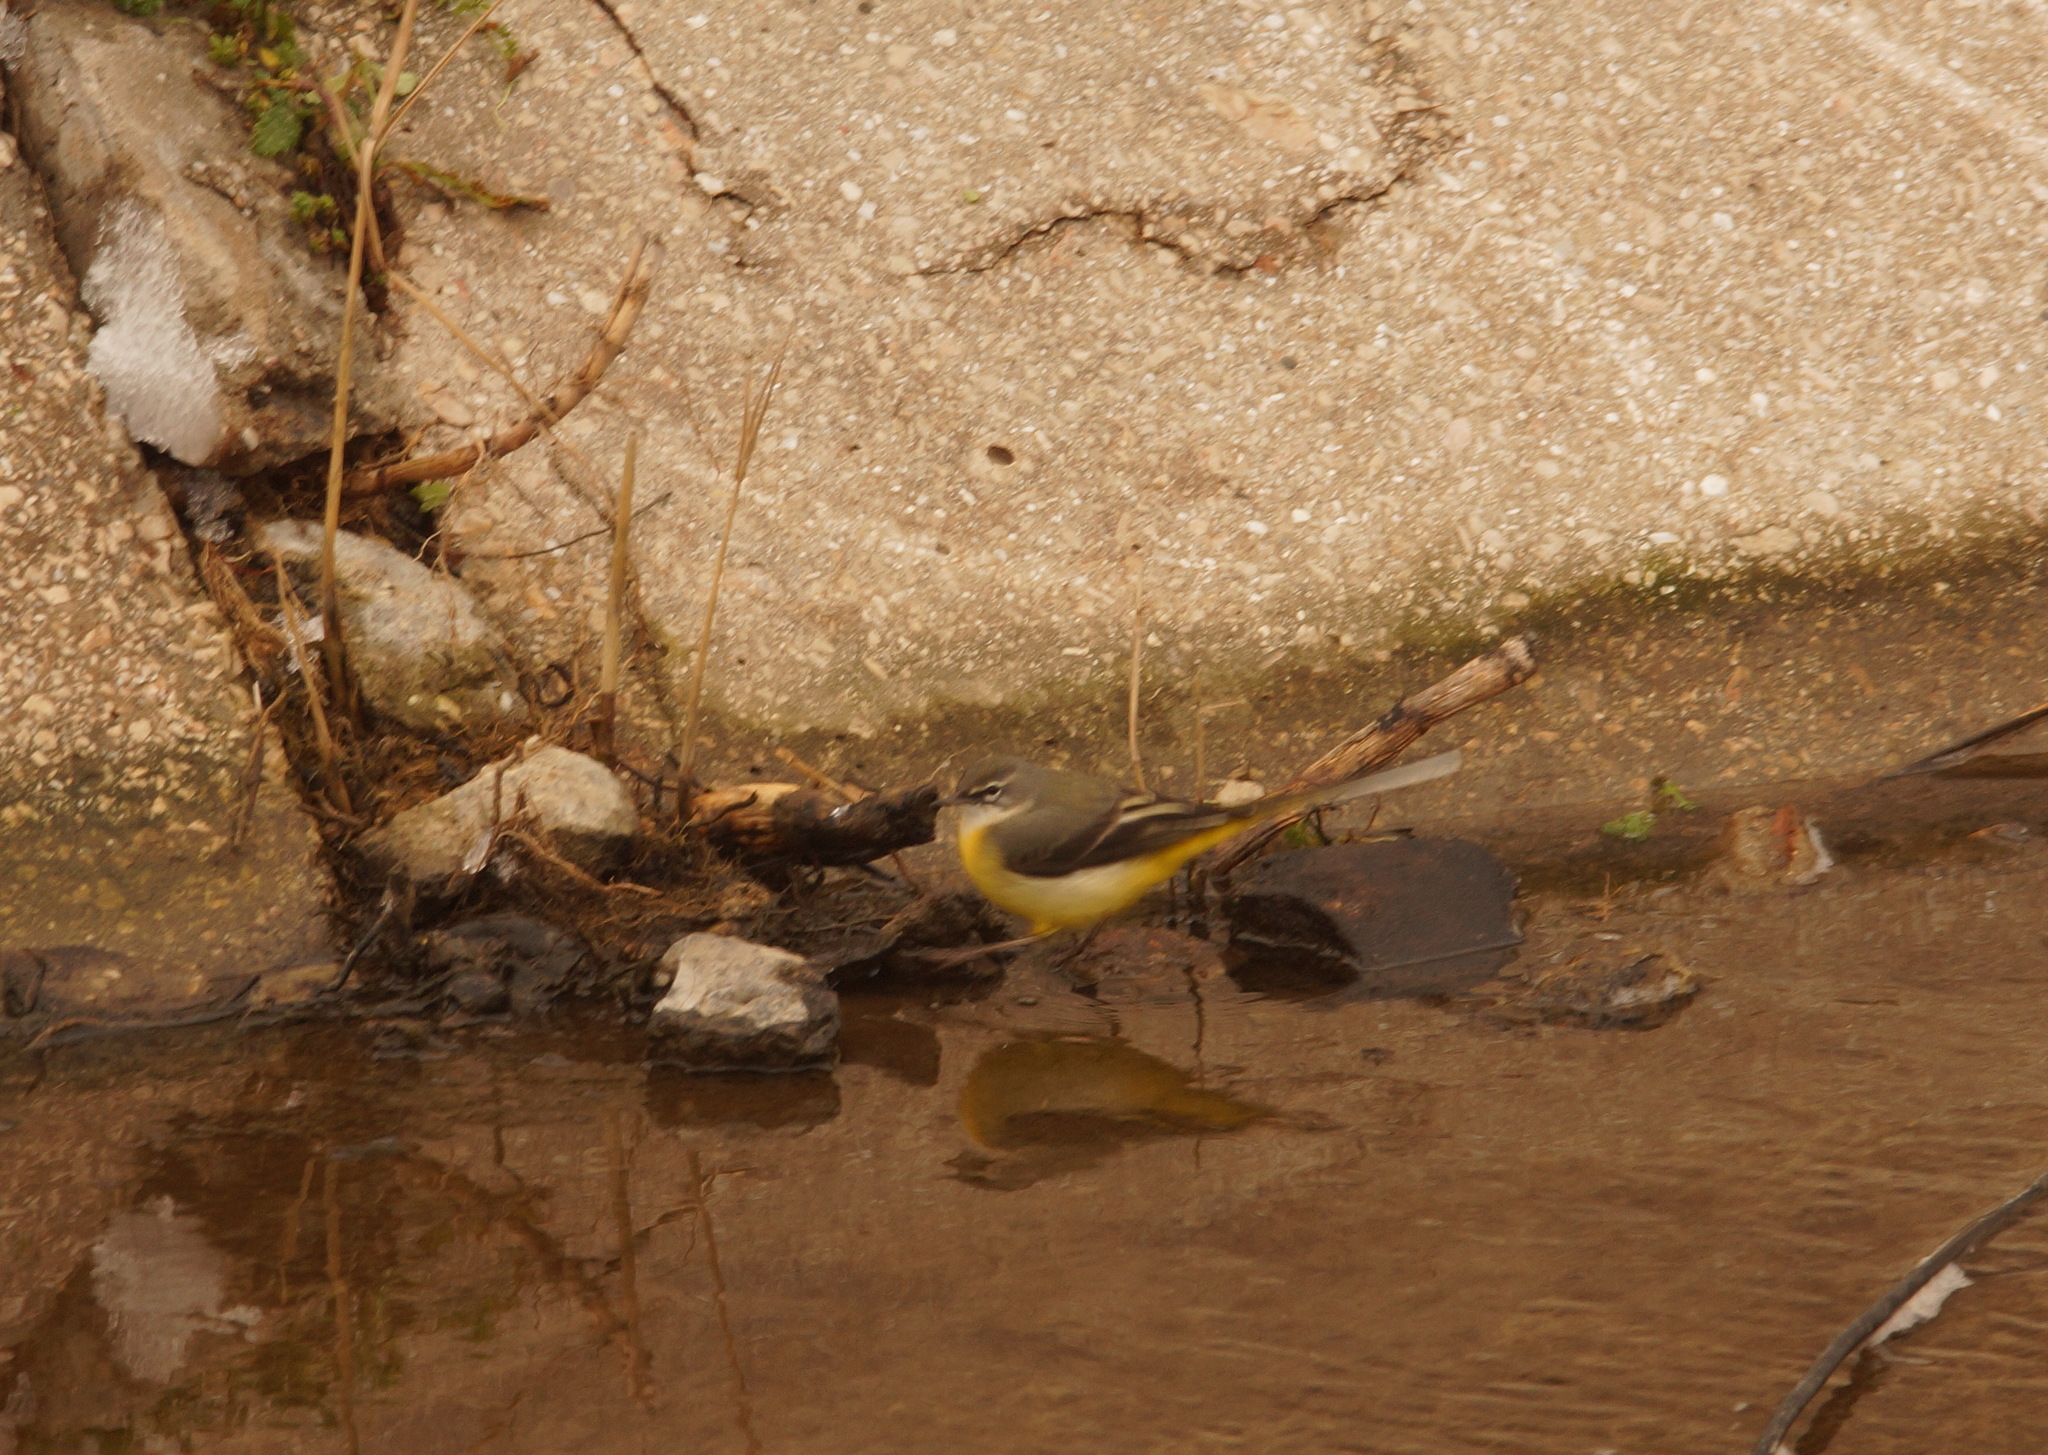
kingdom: Animalia
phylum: Chordata
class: Aves
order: Passeriformes
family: Motacillidae
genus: Motacilla
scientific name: Motacilla cinerea
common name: Grey wagtail
